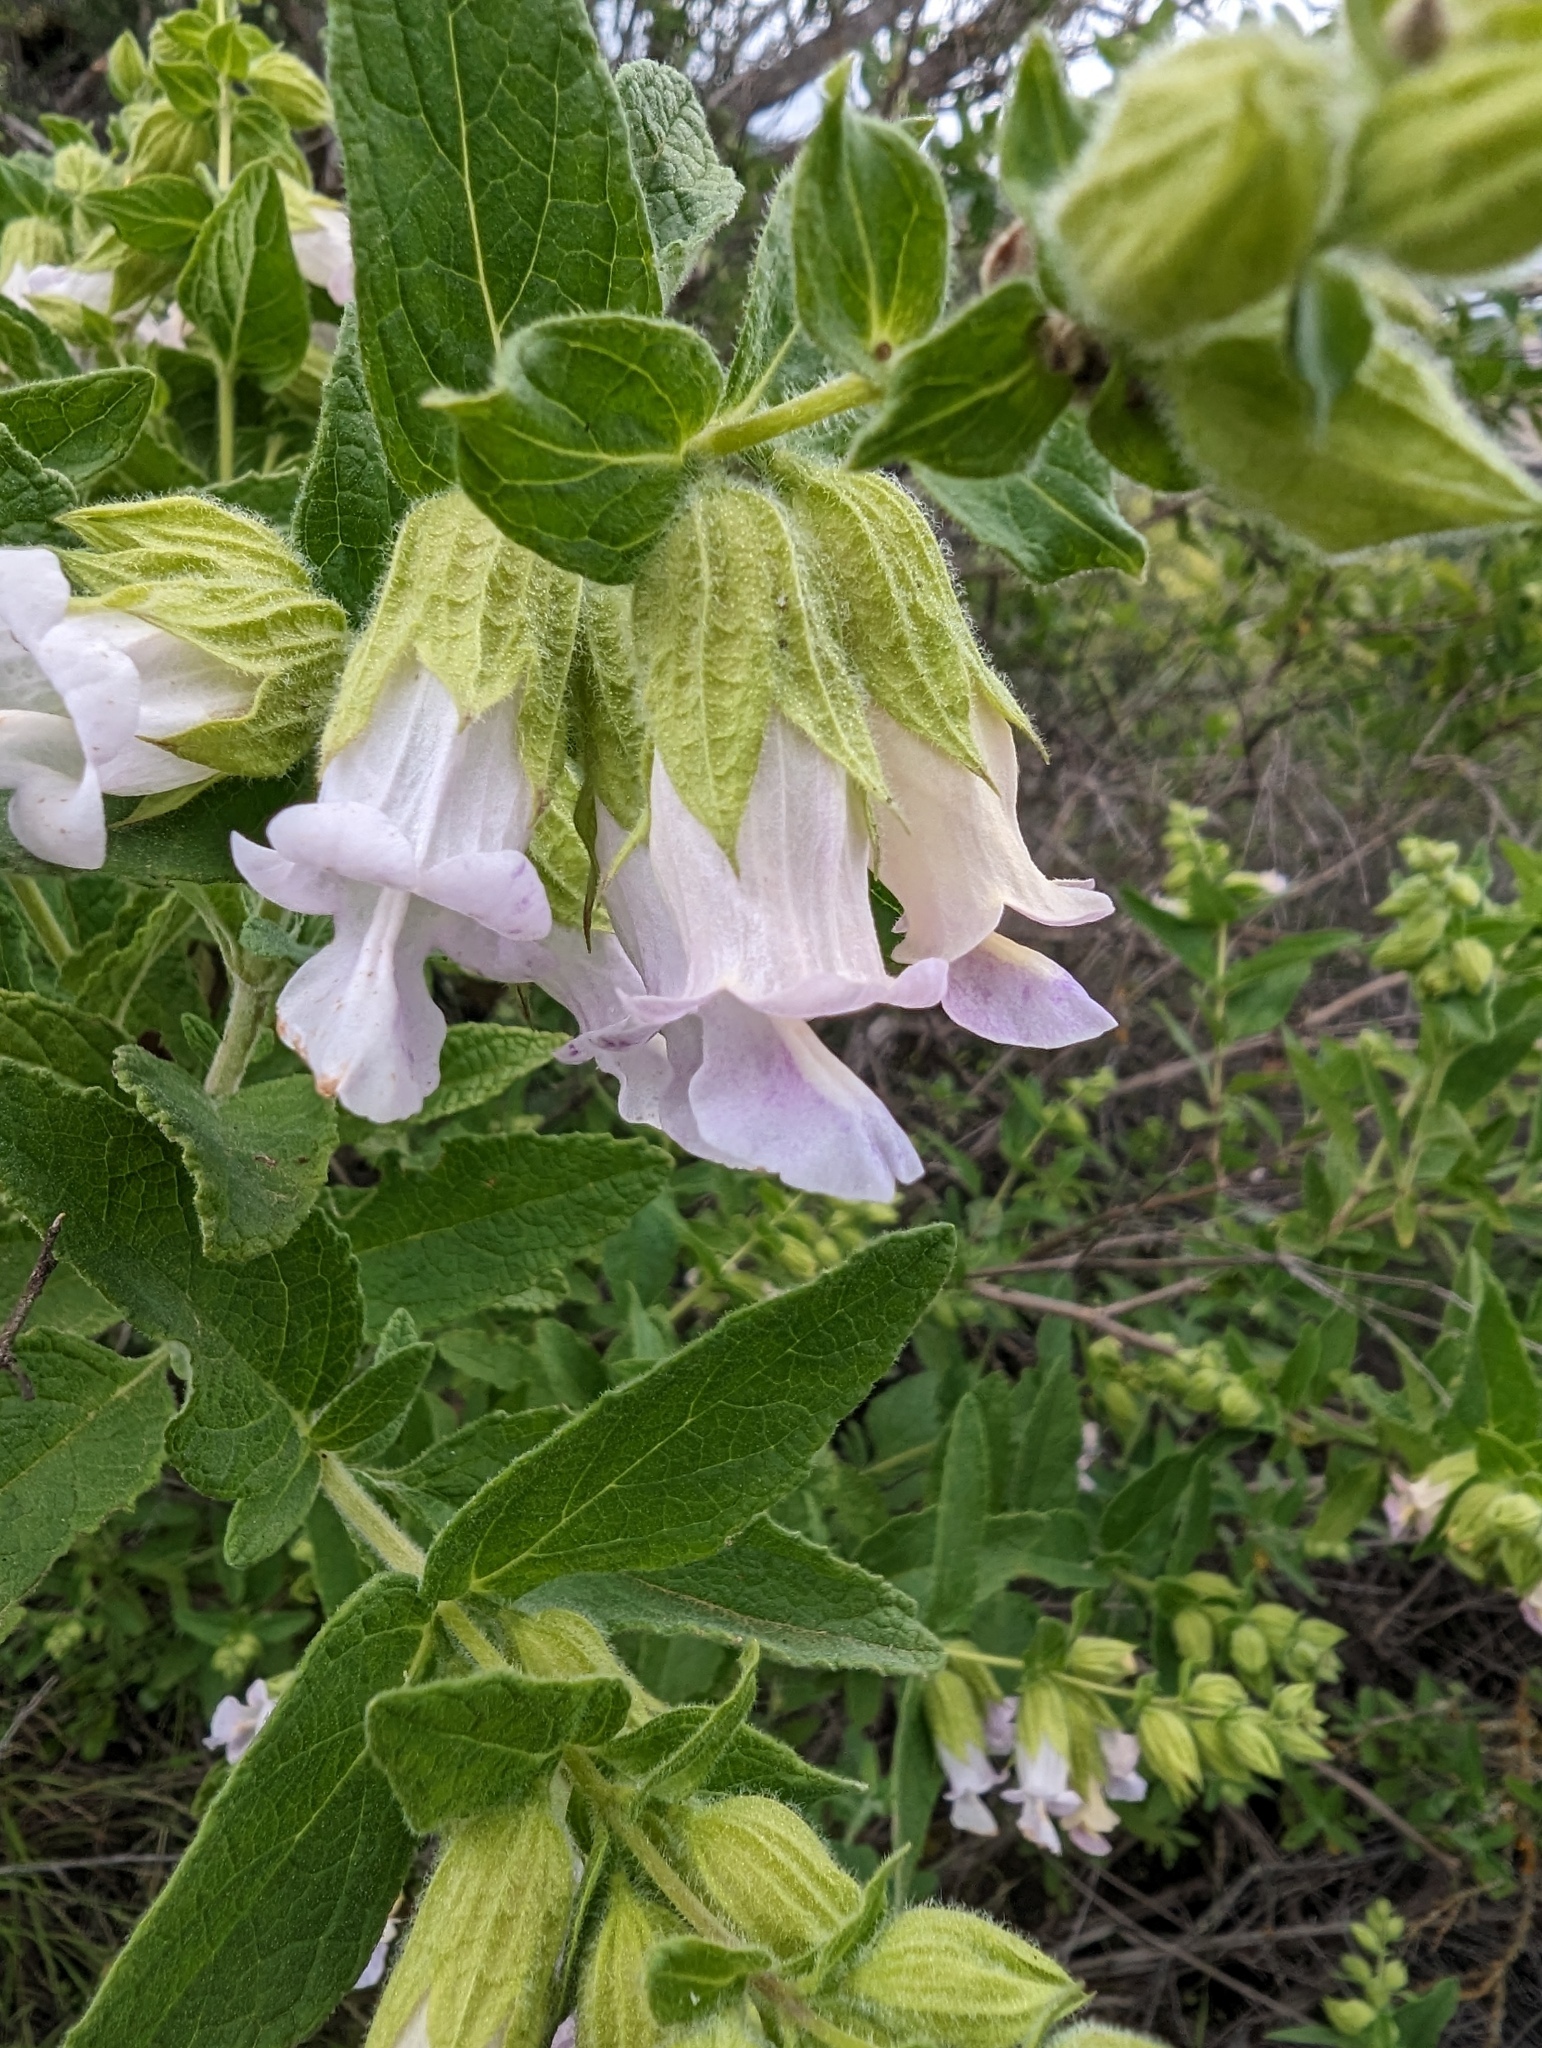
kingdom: Plantae
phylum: Tracheophyta
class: Magnoliopsida
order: Lamiales
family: Lamiaceae
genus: Lepechinia
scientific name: Lepechinia calycina
